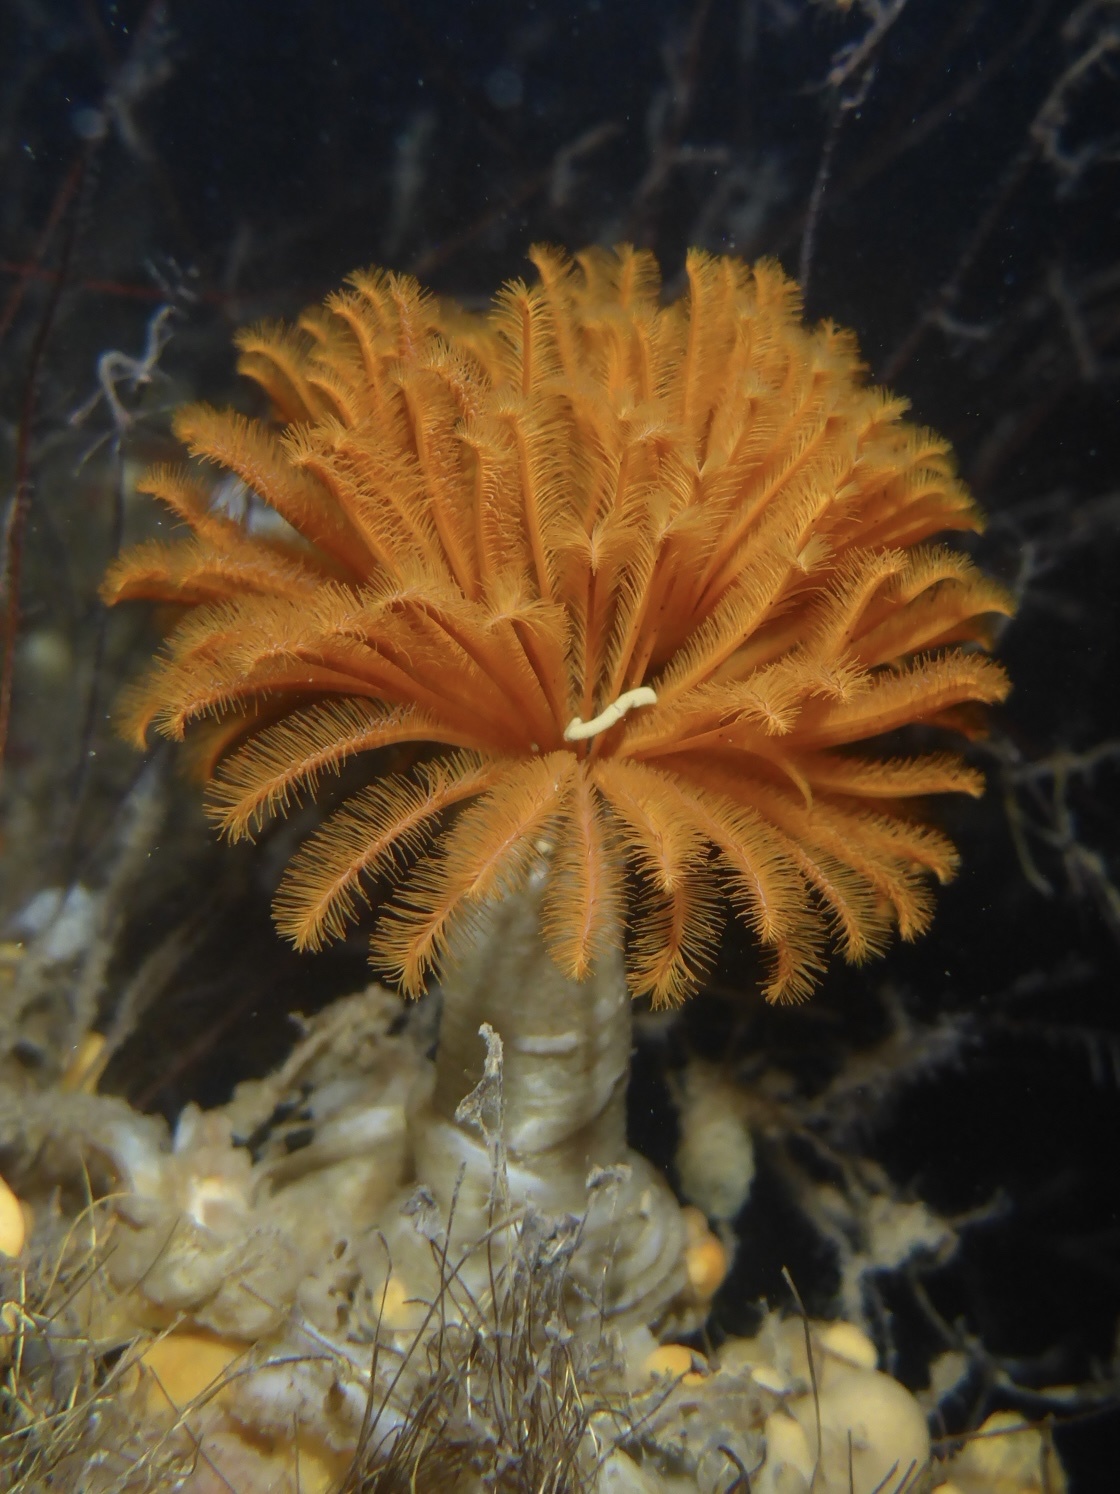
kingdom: Animalia
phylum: Annelida
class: Polychaeta
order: Sabellida
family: Sabellidae
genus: Eudistylia
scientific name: Eudistylia polymorpha
